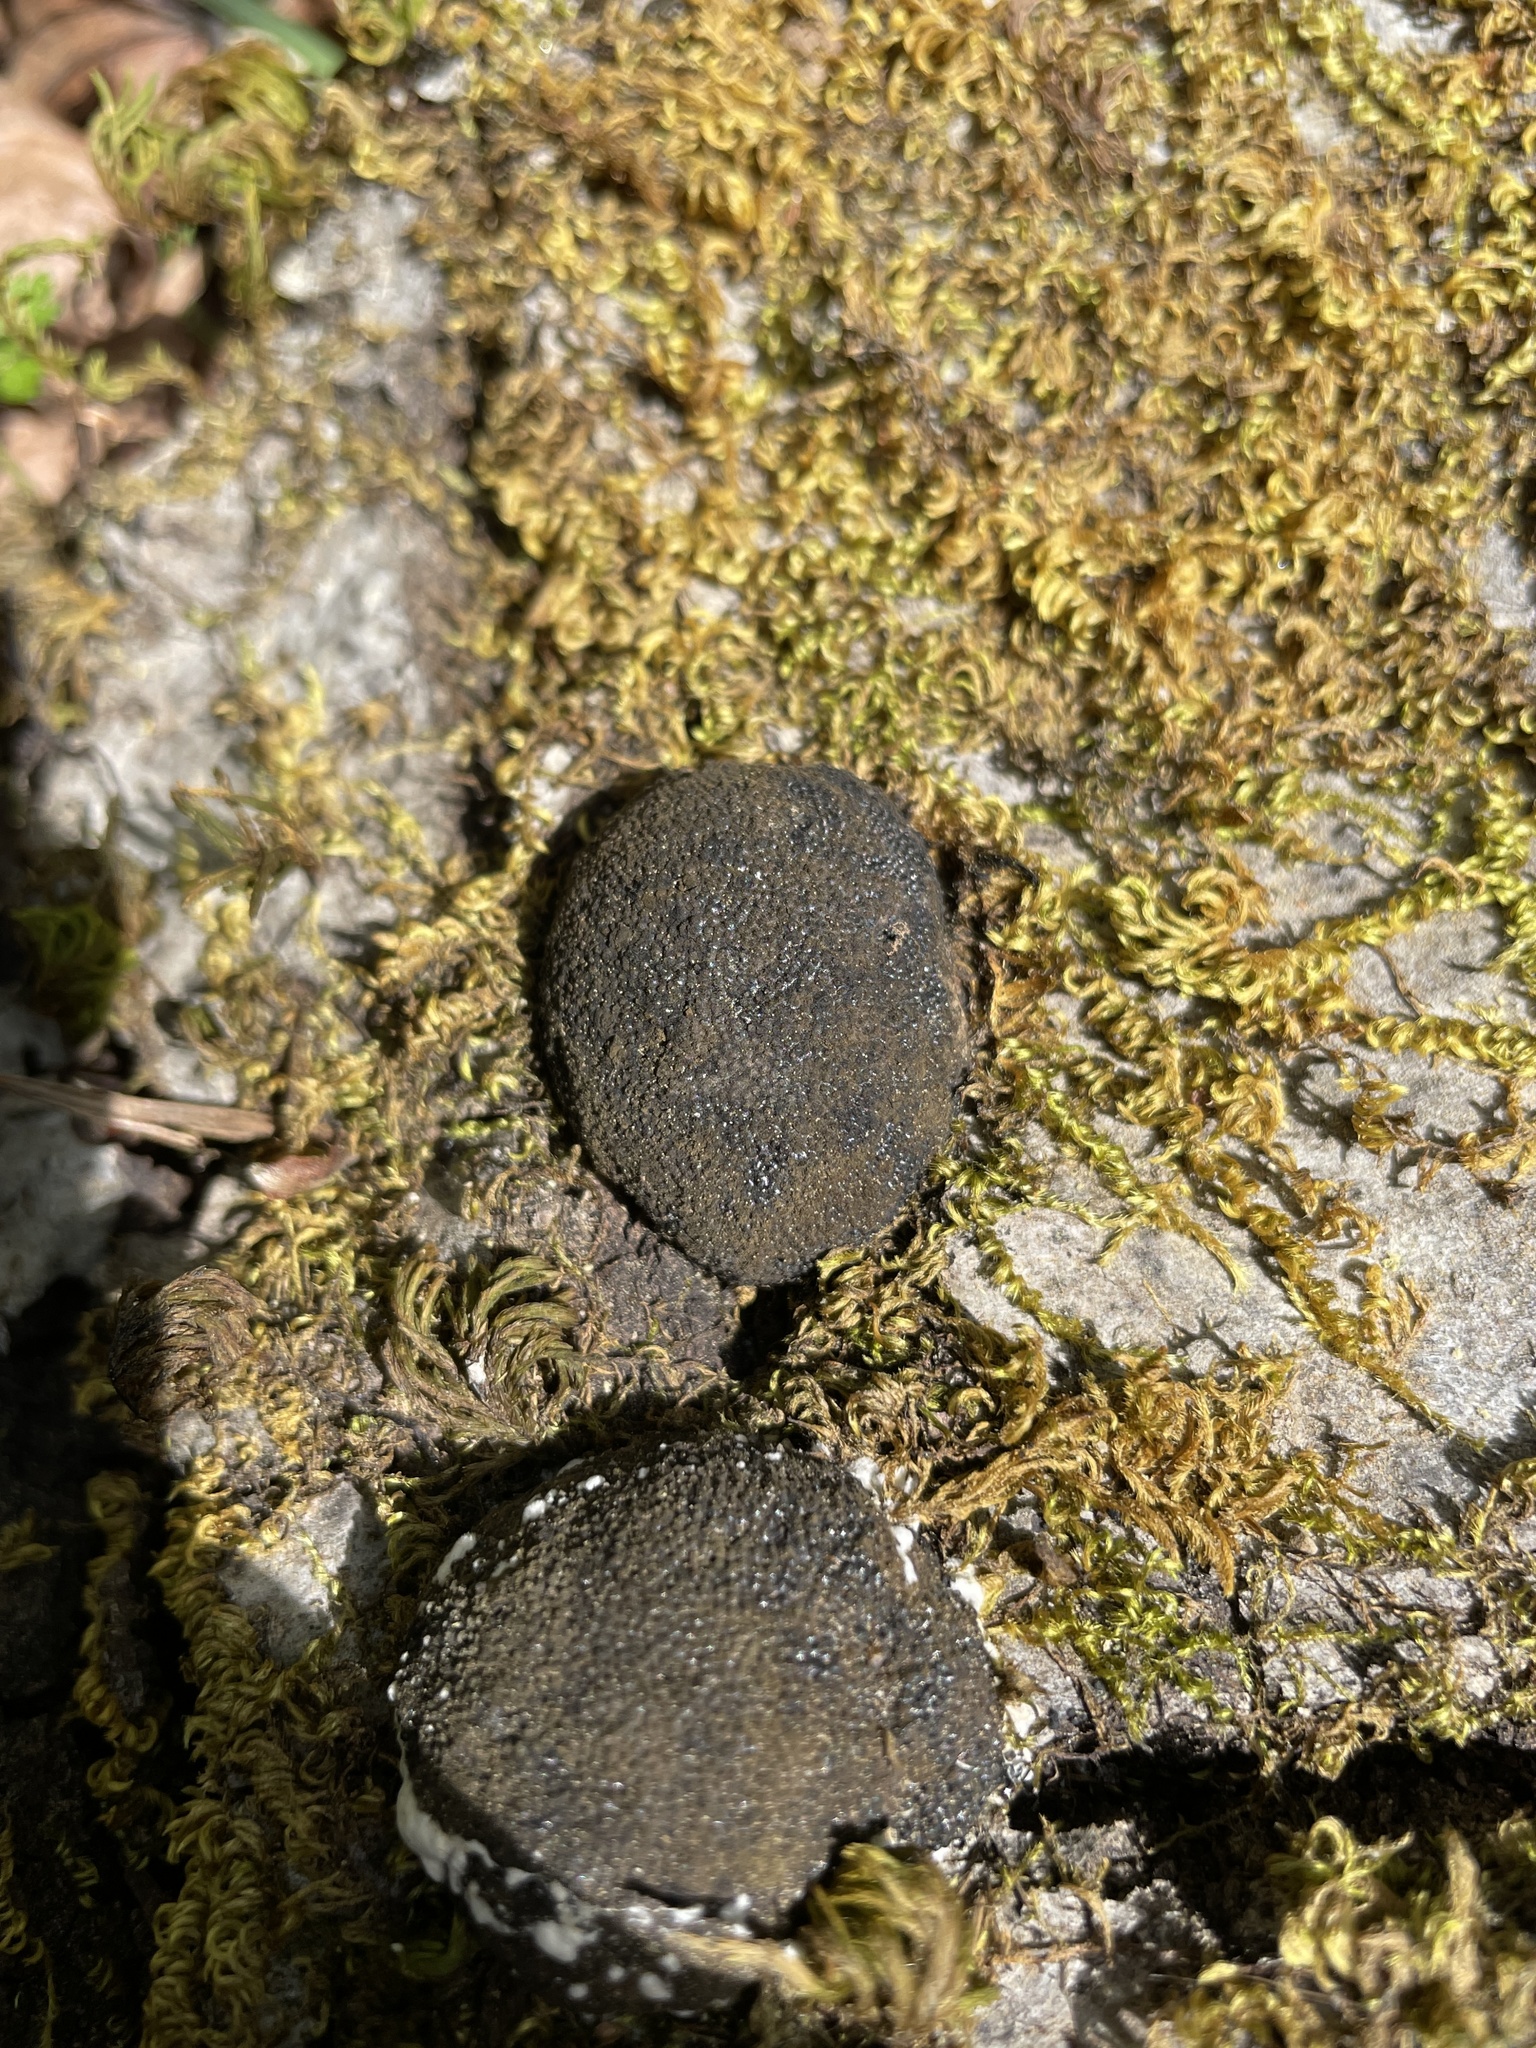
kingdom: Fungi
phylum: Ascomycota
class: Sordariomycetes
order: Xylariales
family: Hypoxylaceae
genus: Annulohypoxylon
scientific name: Annulohypoxylon thouarsianum
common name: Cramp balls
